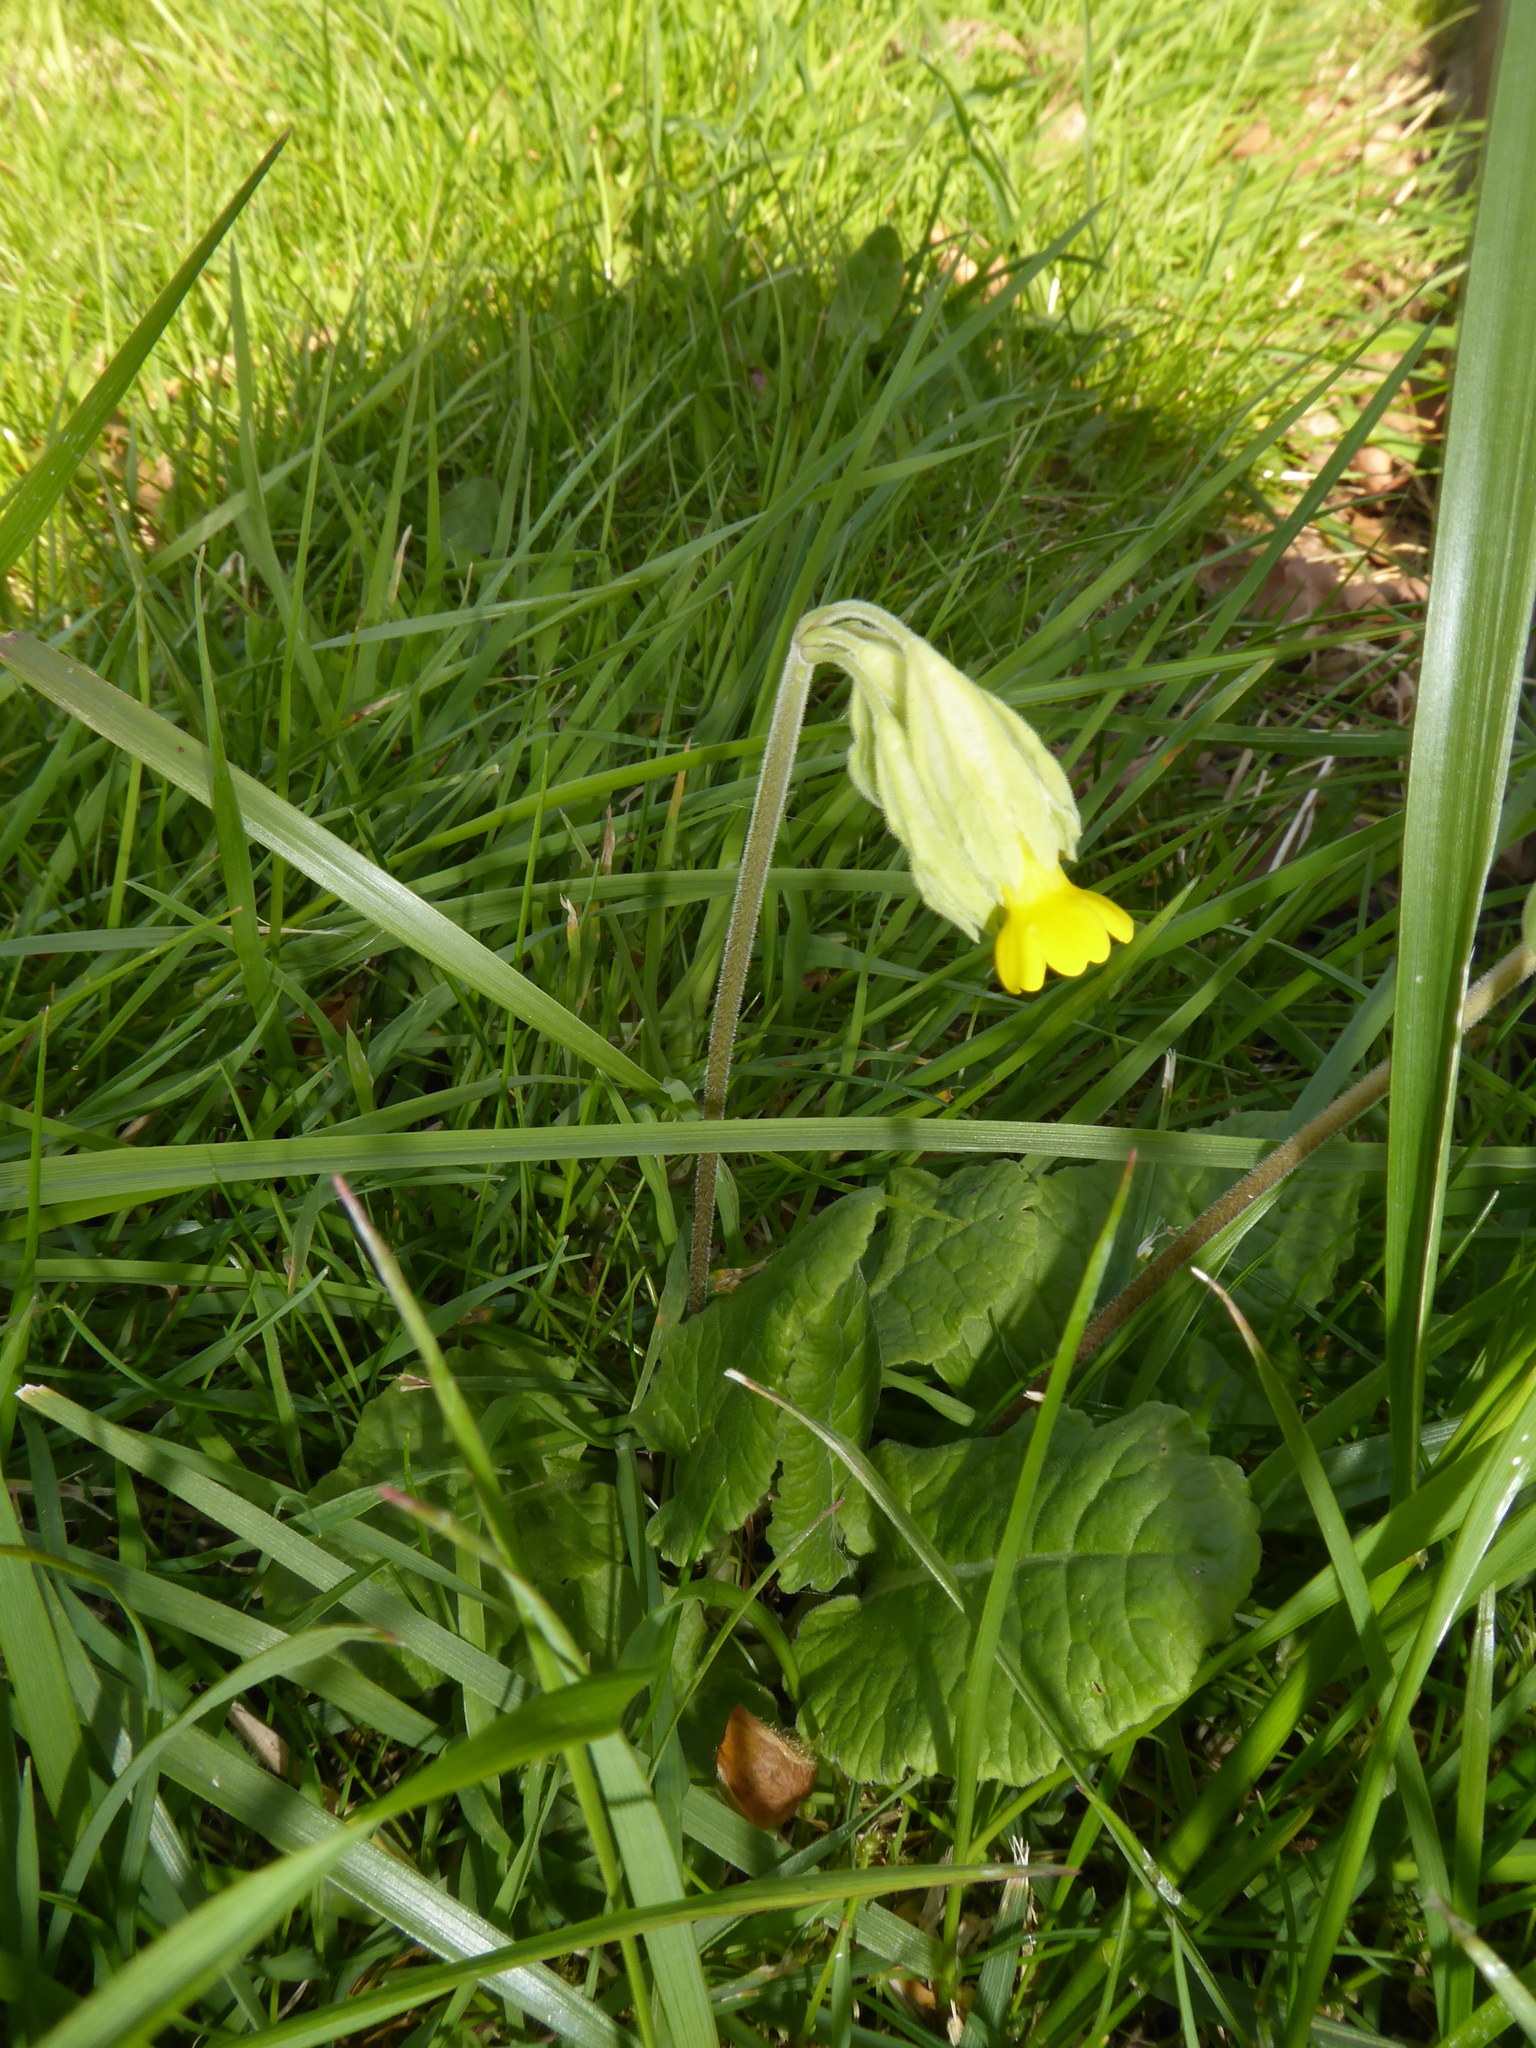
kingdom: Plantae
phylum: Tracheophyta
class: Magnoliopsida
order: Ericales
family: Primulaceae
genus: Primula
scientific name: Primula veris
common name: Cowslip
